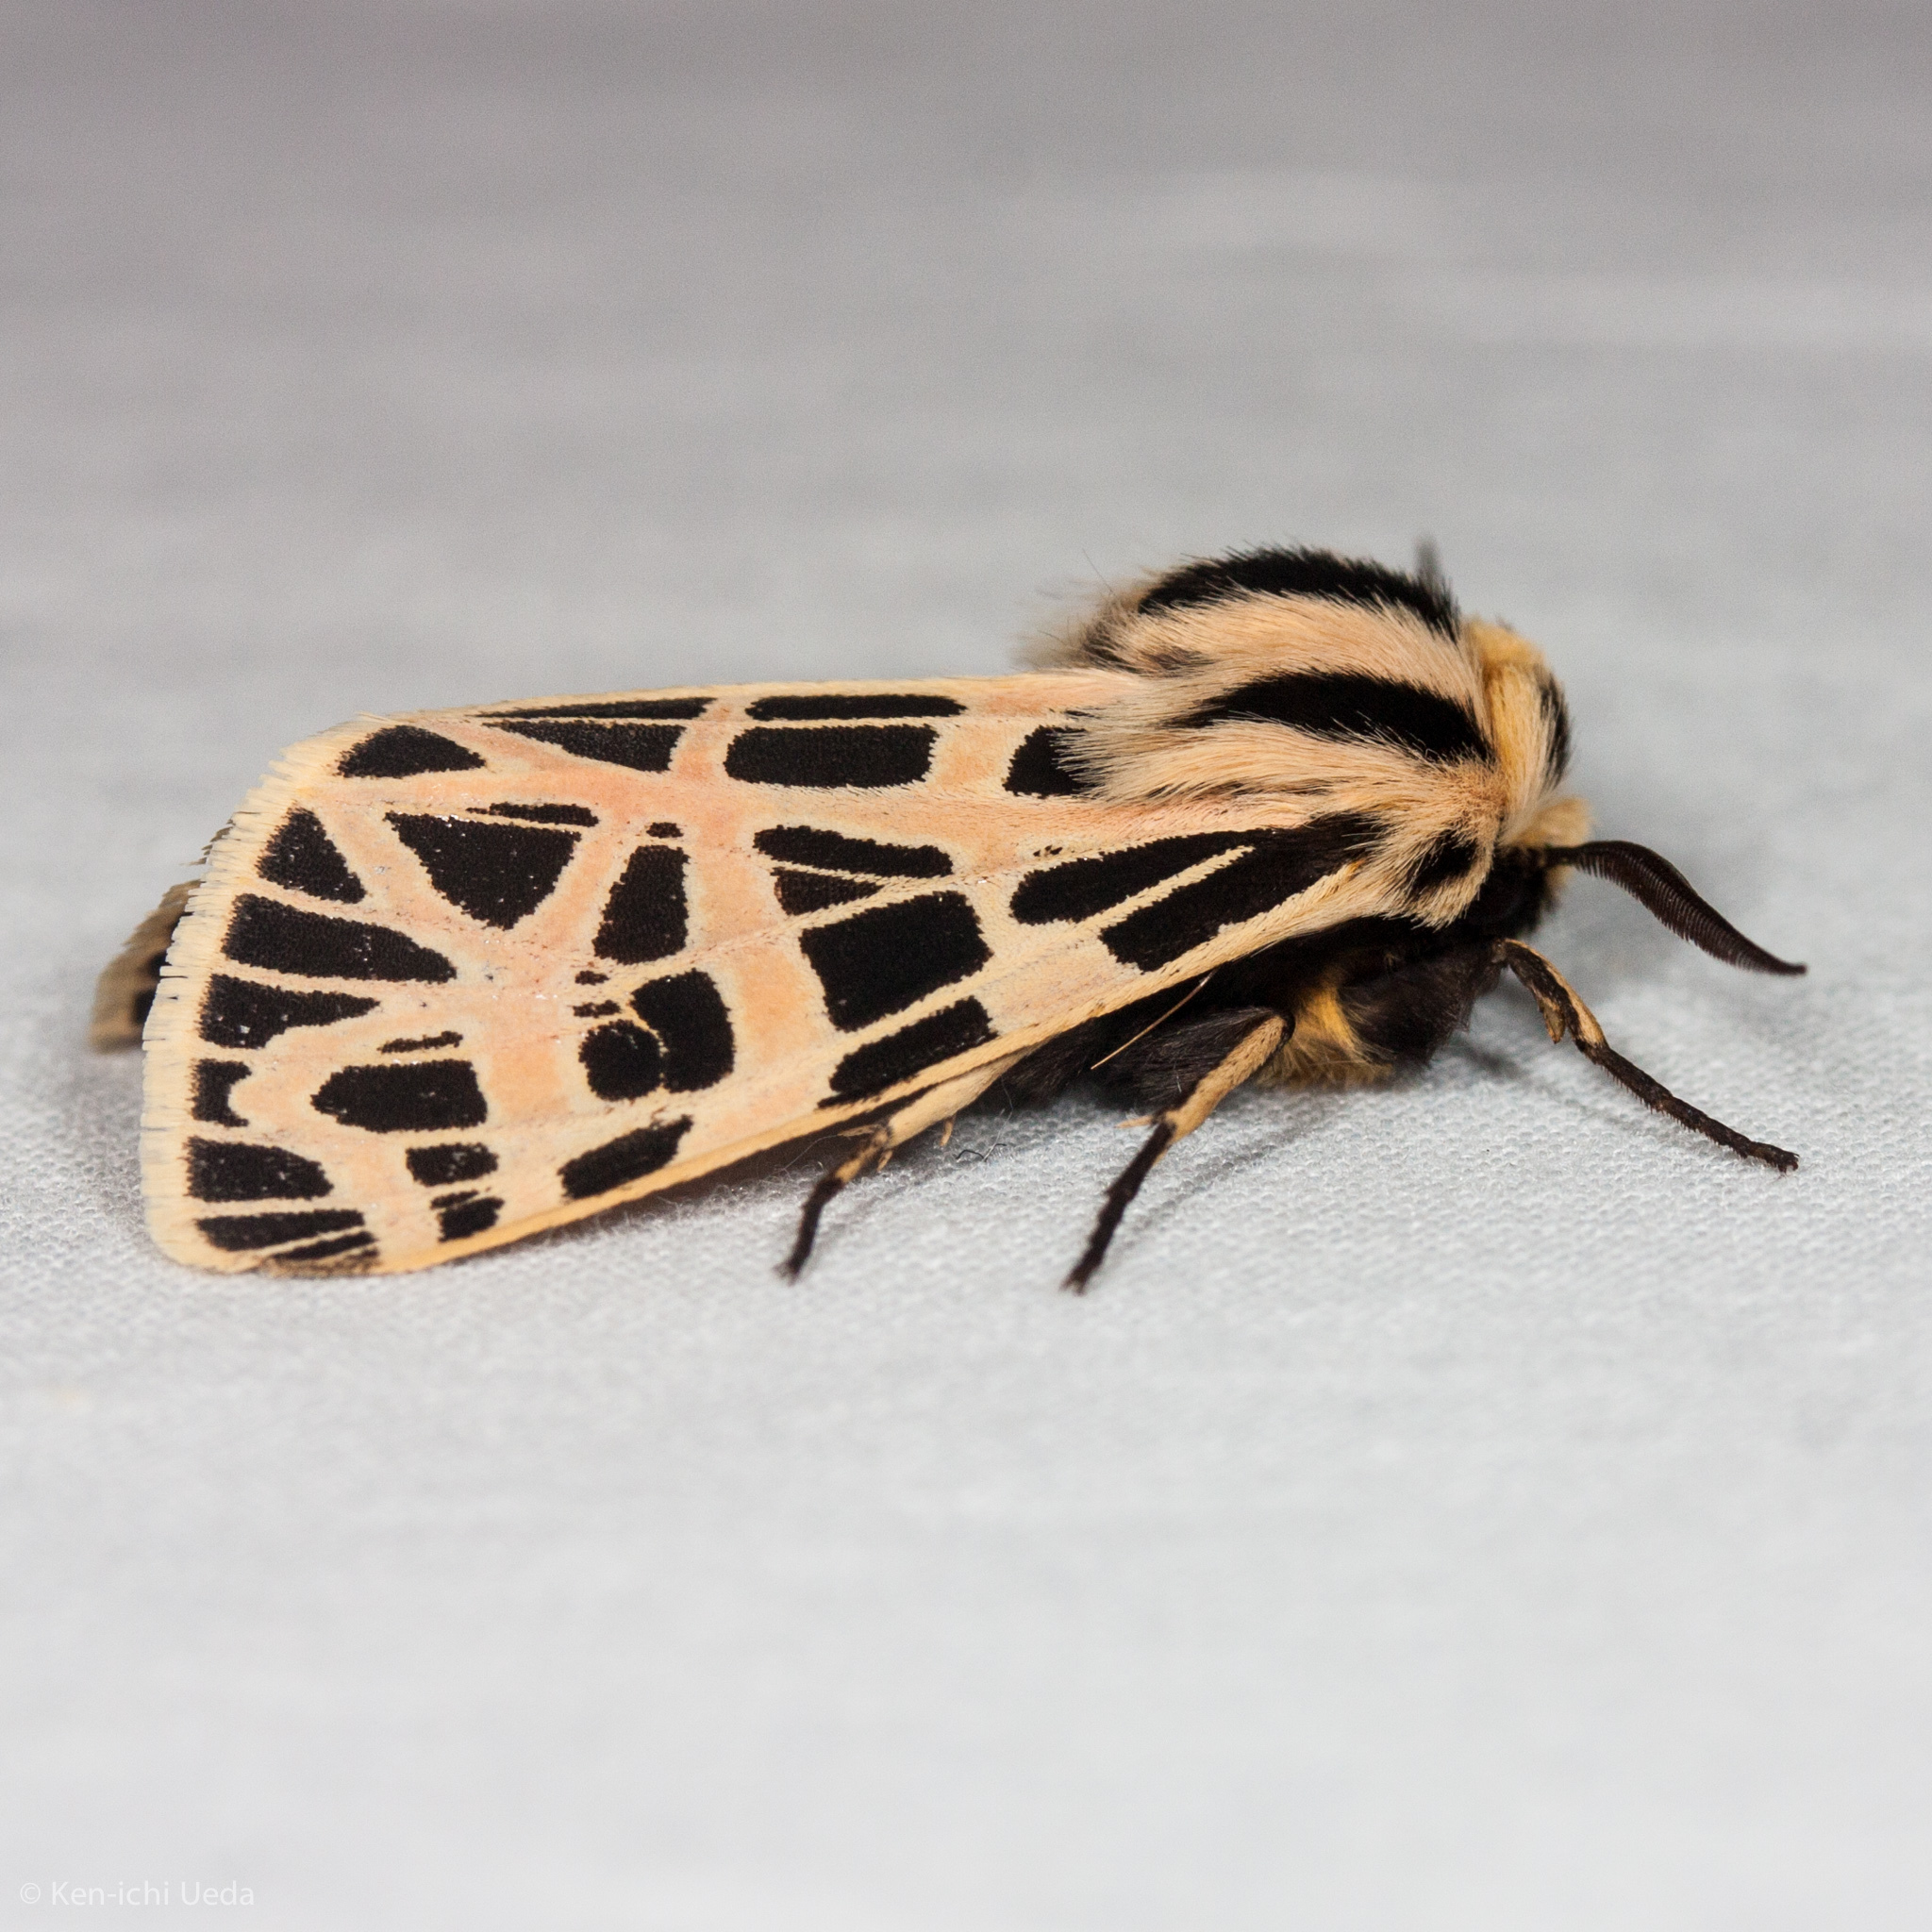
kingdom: Animalia
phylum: Arthropoda
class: Insecta
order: Lepidoptera
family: Erebidae
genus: Apantesis
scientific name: Apantesis
